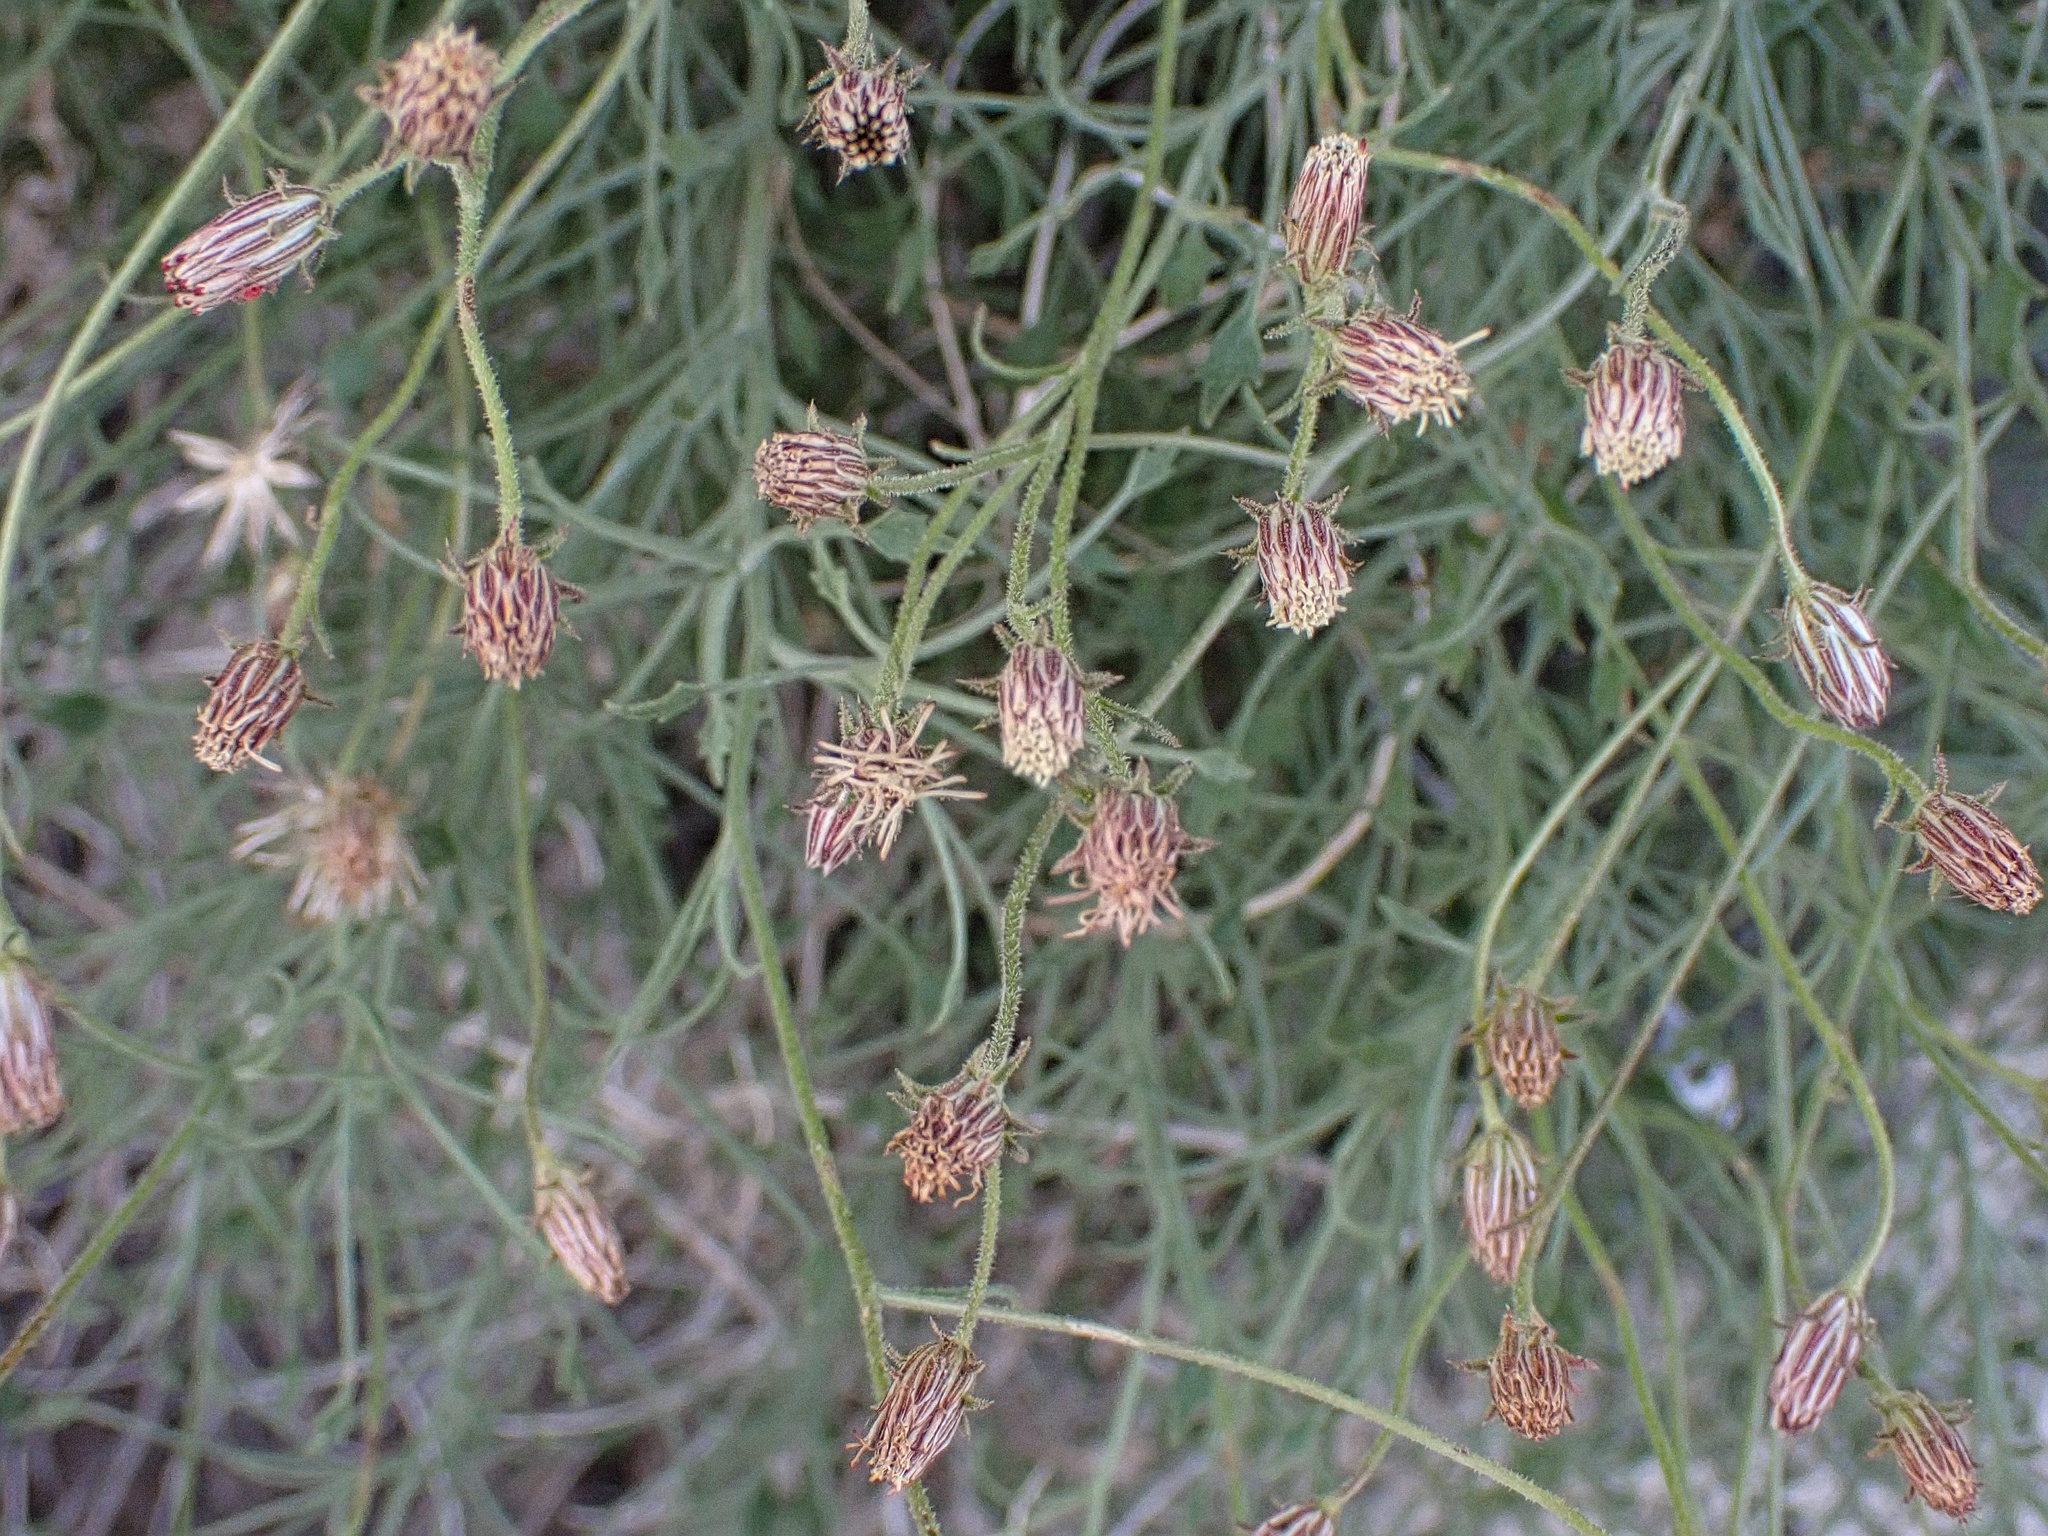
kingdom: Plantae
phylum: Tracheophyta
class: Magnoliopsida
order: Asterales
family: Asteraceae
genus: Pleurocoronis
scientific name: Pleurocoronis pluriseta
